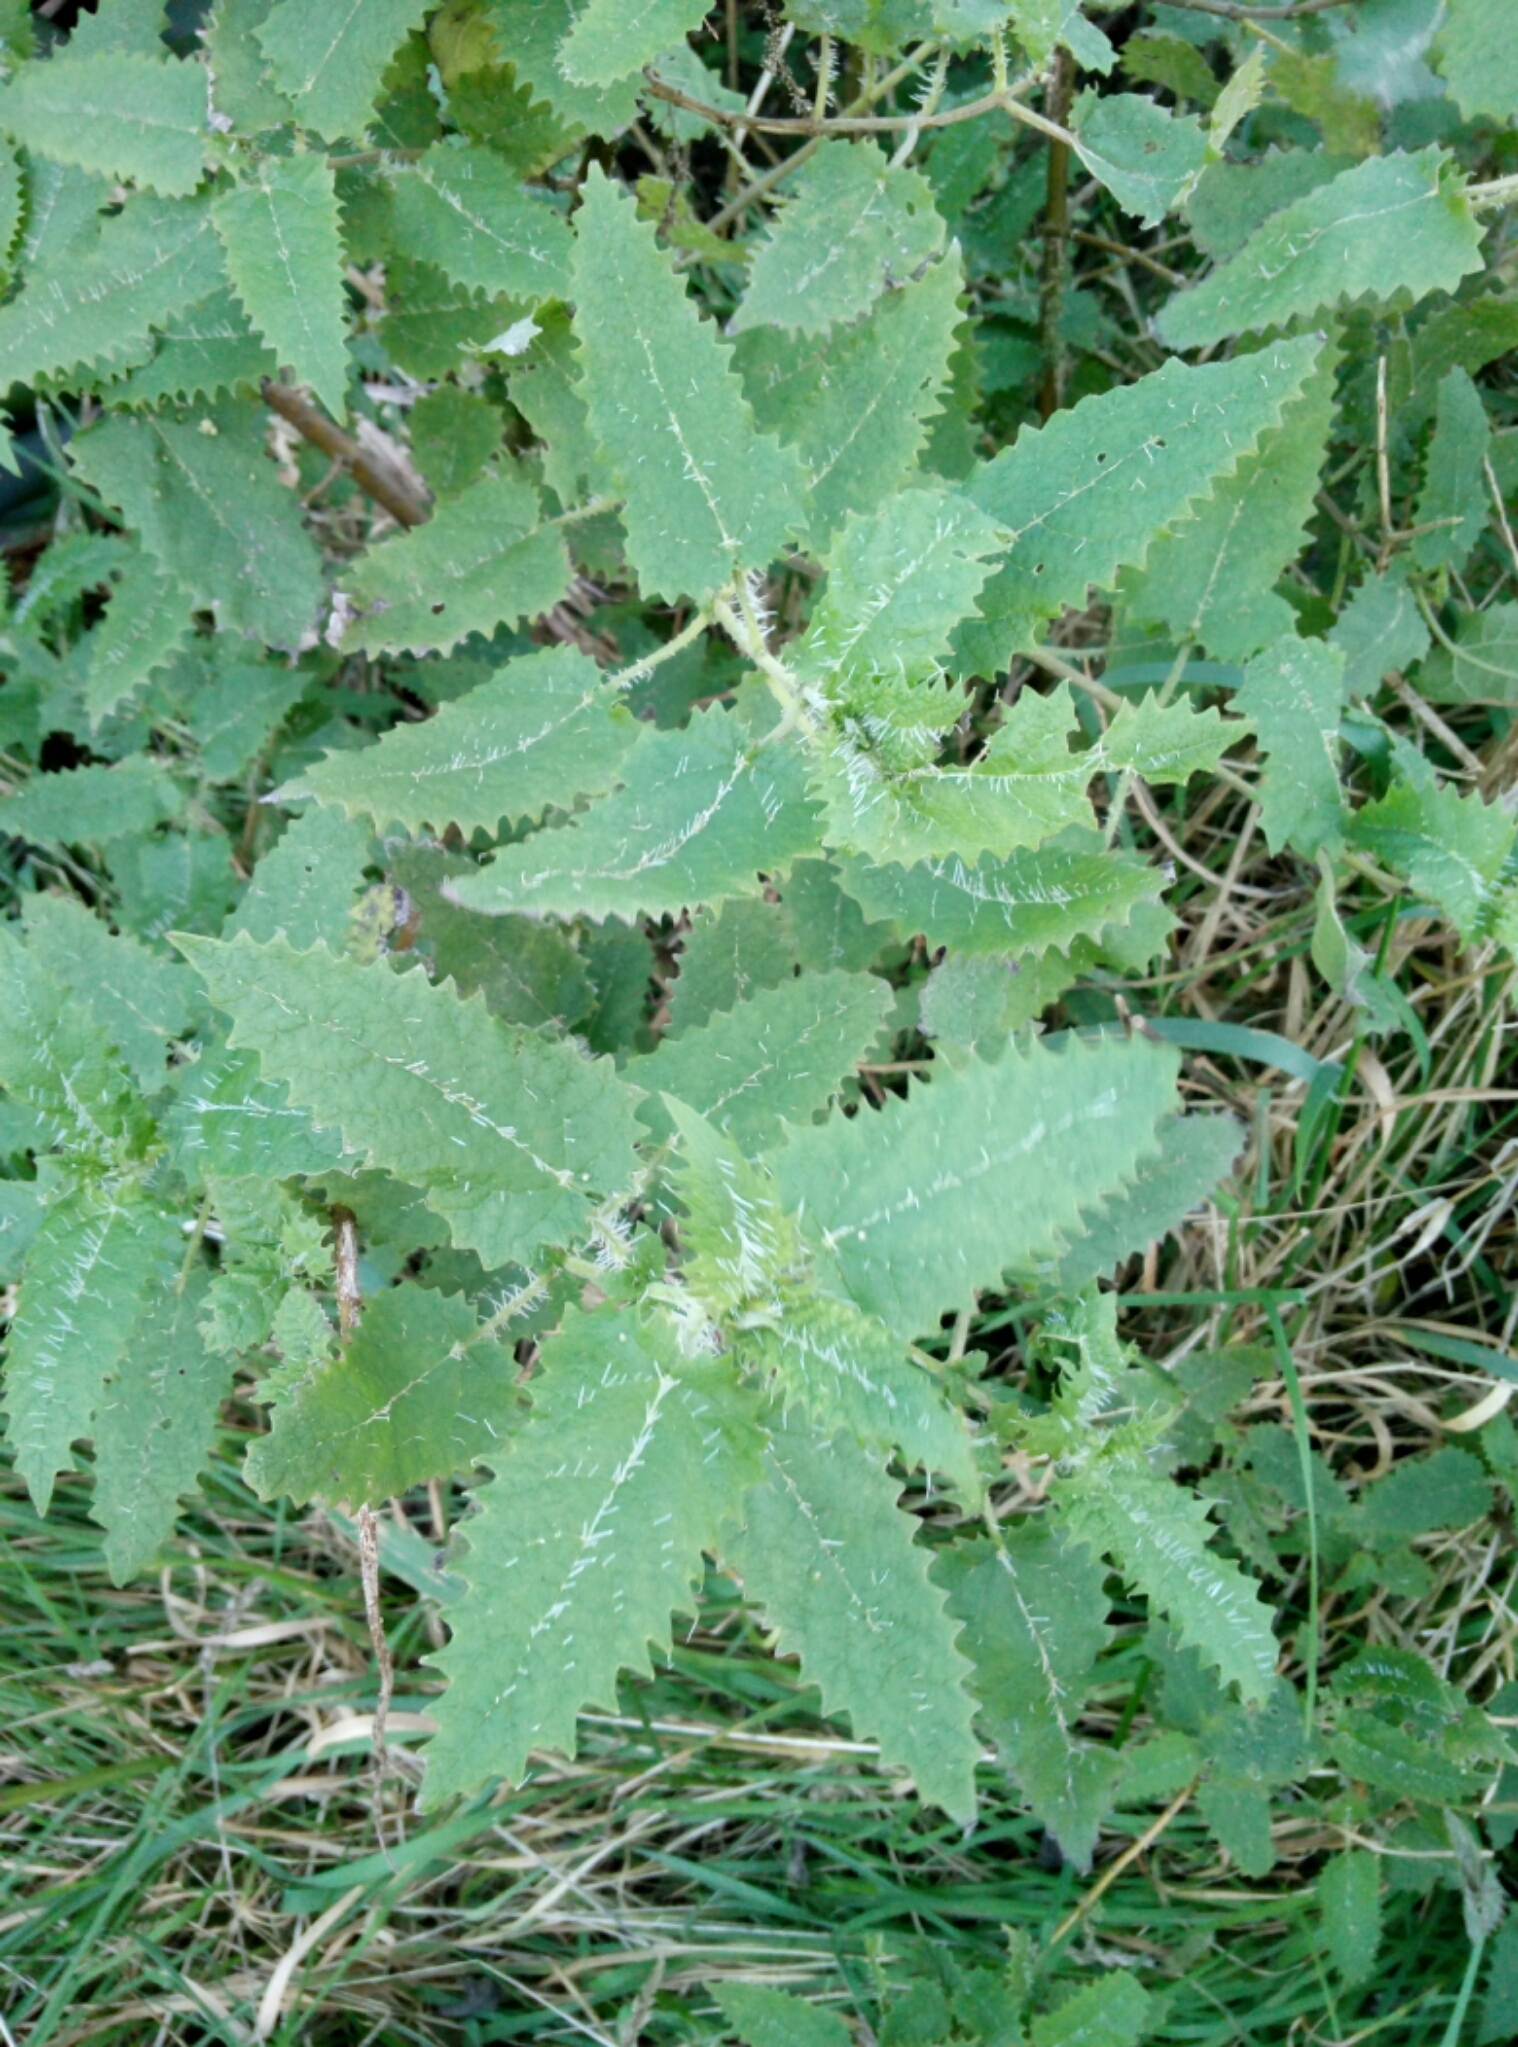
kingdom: Plantae
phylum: Tracheophyta
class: Magnoliopsida
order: Rosales
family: Urticaceae
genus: Urtica
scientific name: Urtica ferox
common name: Tree nettle
